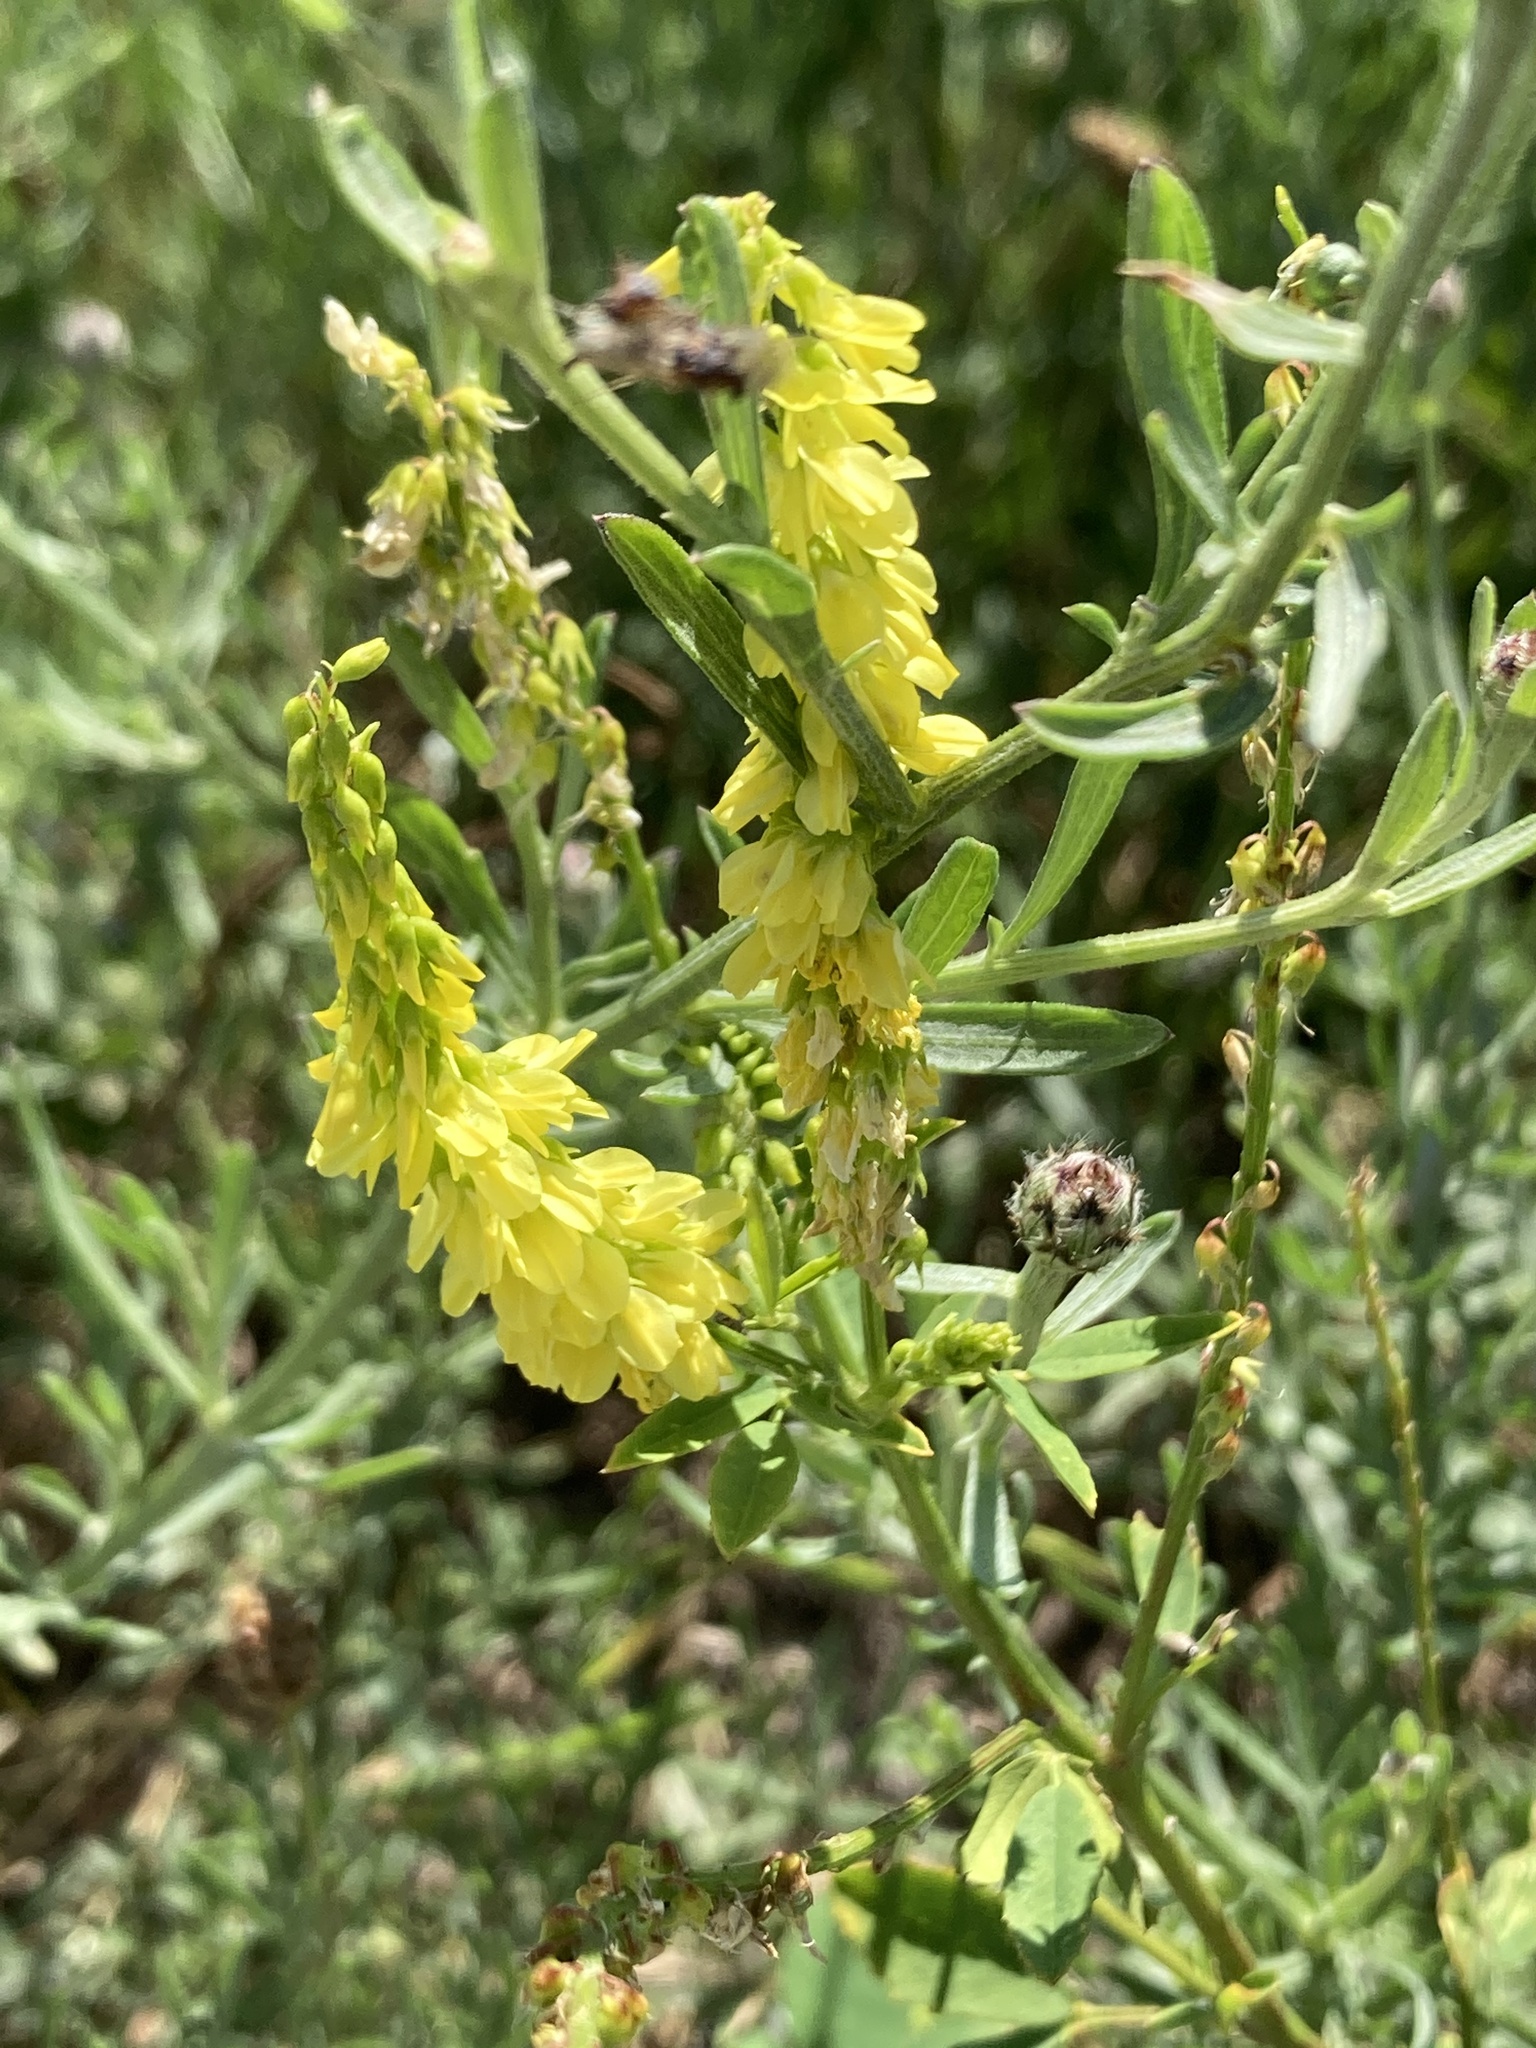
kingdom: Plantae
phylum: Tracheophyta
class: Magnoliopsida
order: Fabales
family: Fabaceae
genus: Melilotus
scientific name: Melilotus officinalis
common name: Sweetclover
